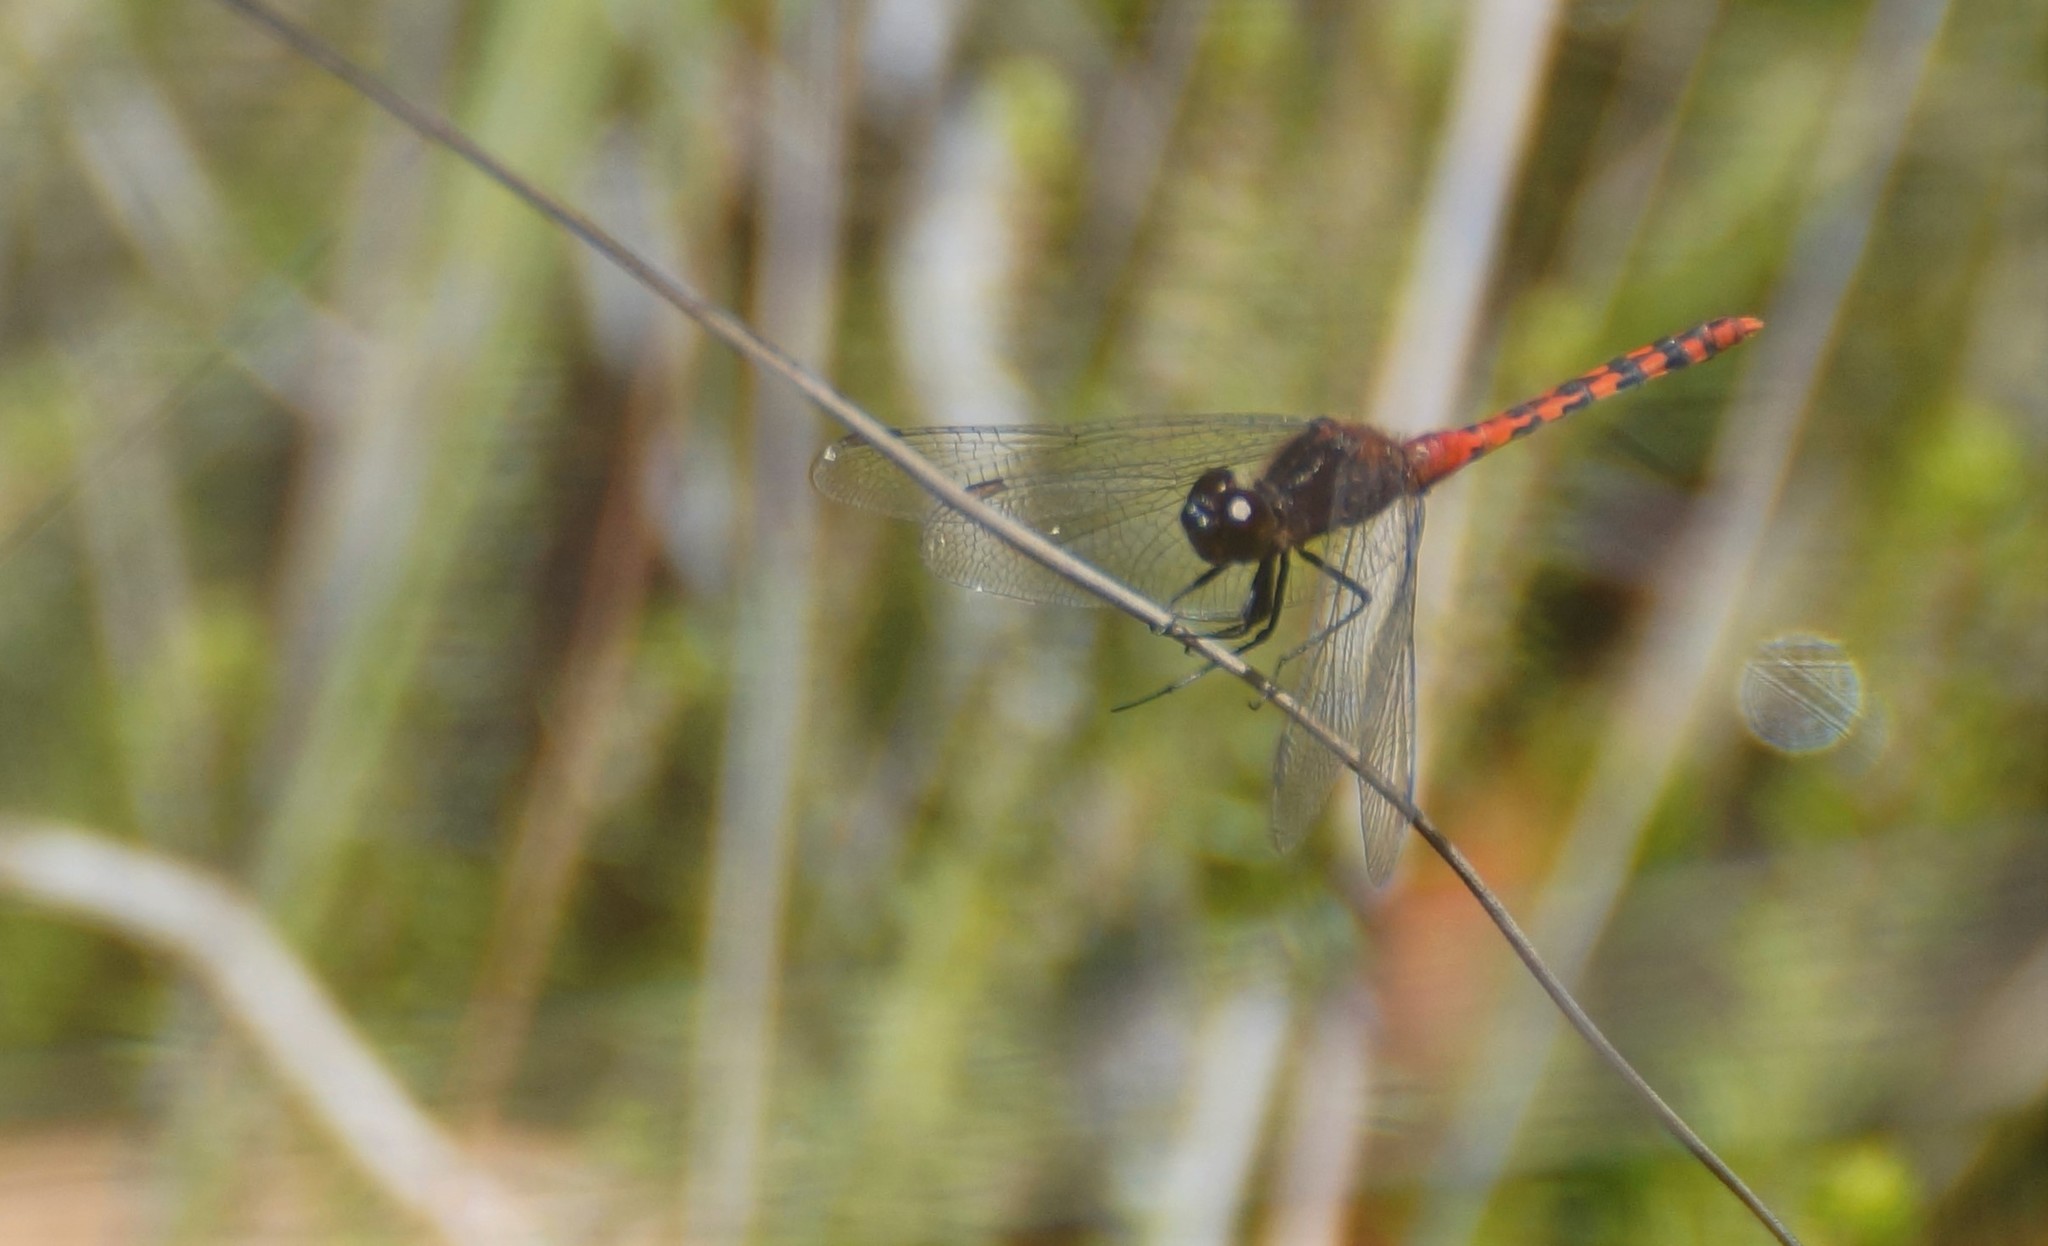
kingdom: Animalia
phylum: Arthropoda
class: Insecta
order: Odonata
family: Libellulidae
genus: Diplacodes
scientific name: Diplacodes melanopsis
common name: Black-faced percher
